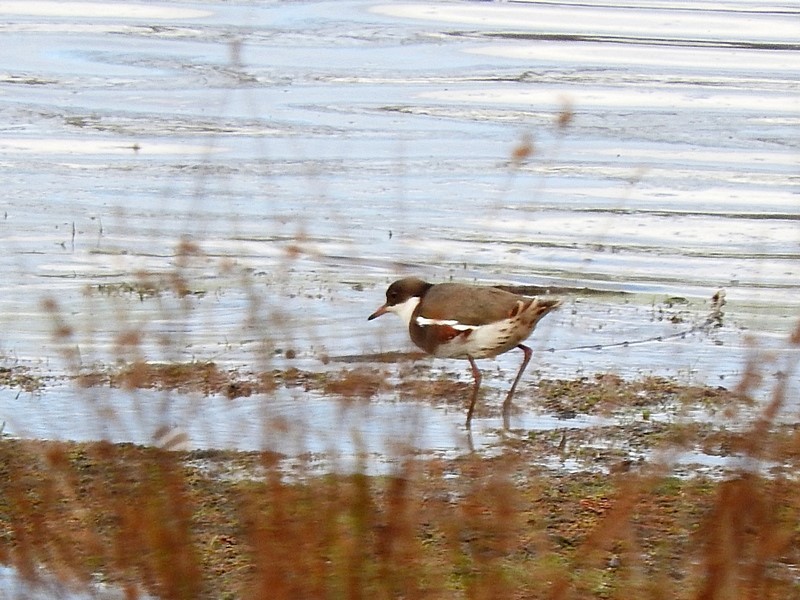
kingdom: Animalia
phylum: Chordata
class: Aves
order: Charadriiformes
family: Charadriidae
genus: Erythrogonys
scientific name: Erythrogonys cinctus
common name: Red-kneed dotterel
